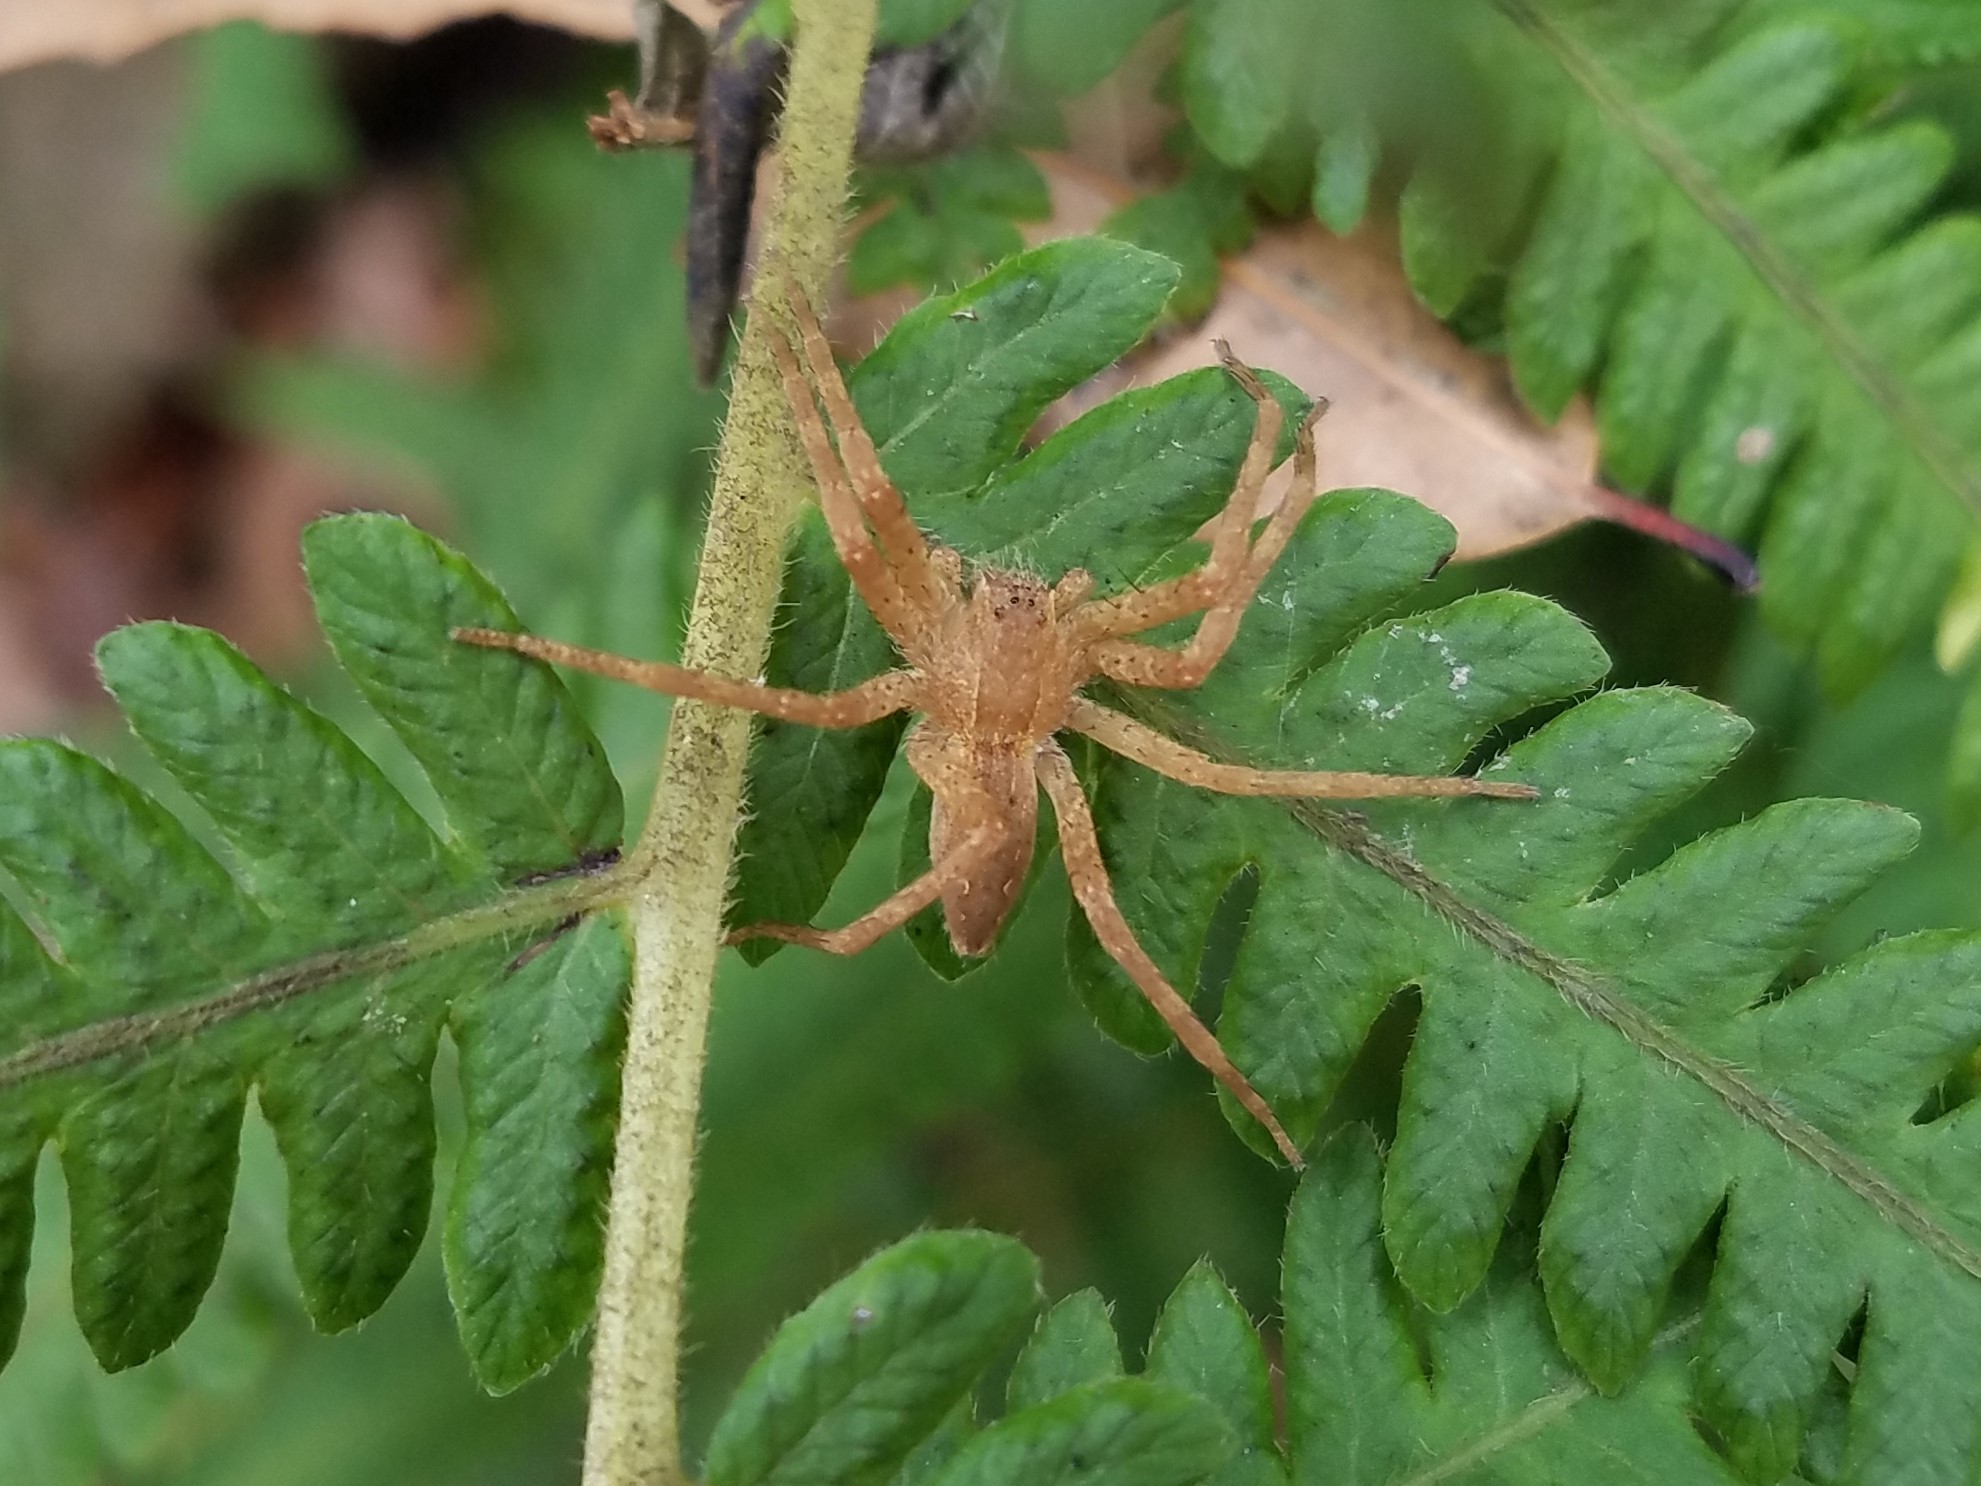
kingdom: Animalia
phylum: Arthropoda
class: Arachnida
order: Araneae
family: Pisauridae
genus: Pisaurina
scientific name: Pisaurina mira
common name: American nursery web spider
